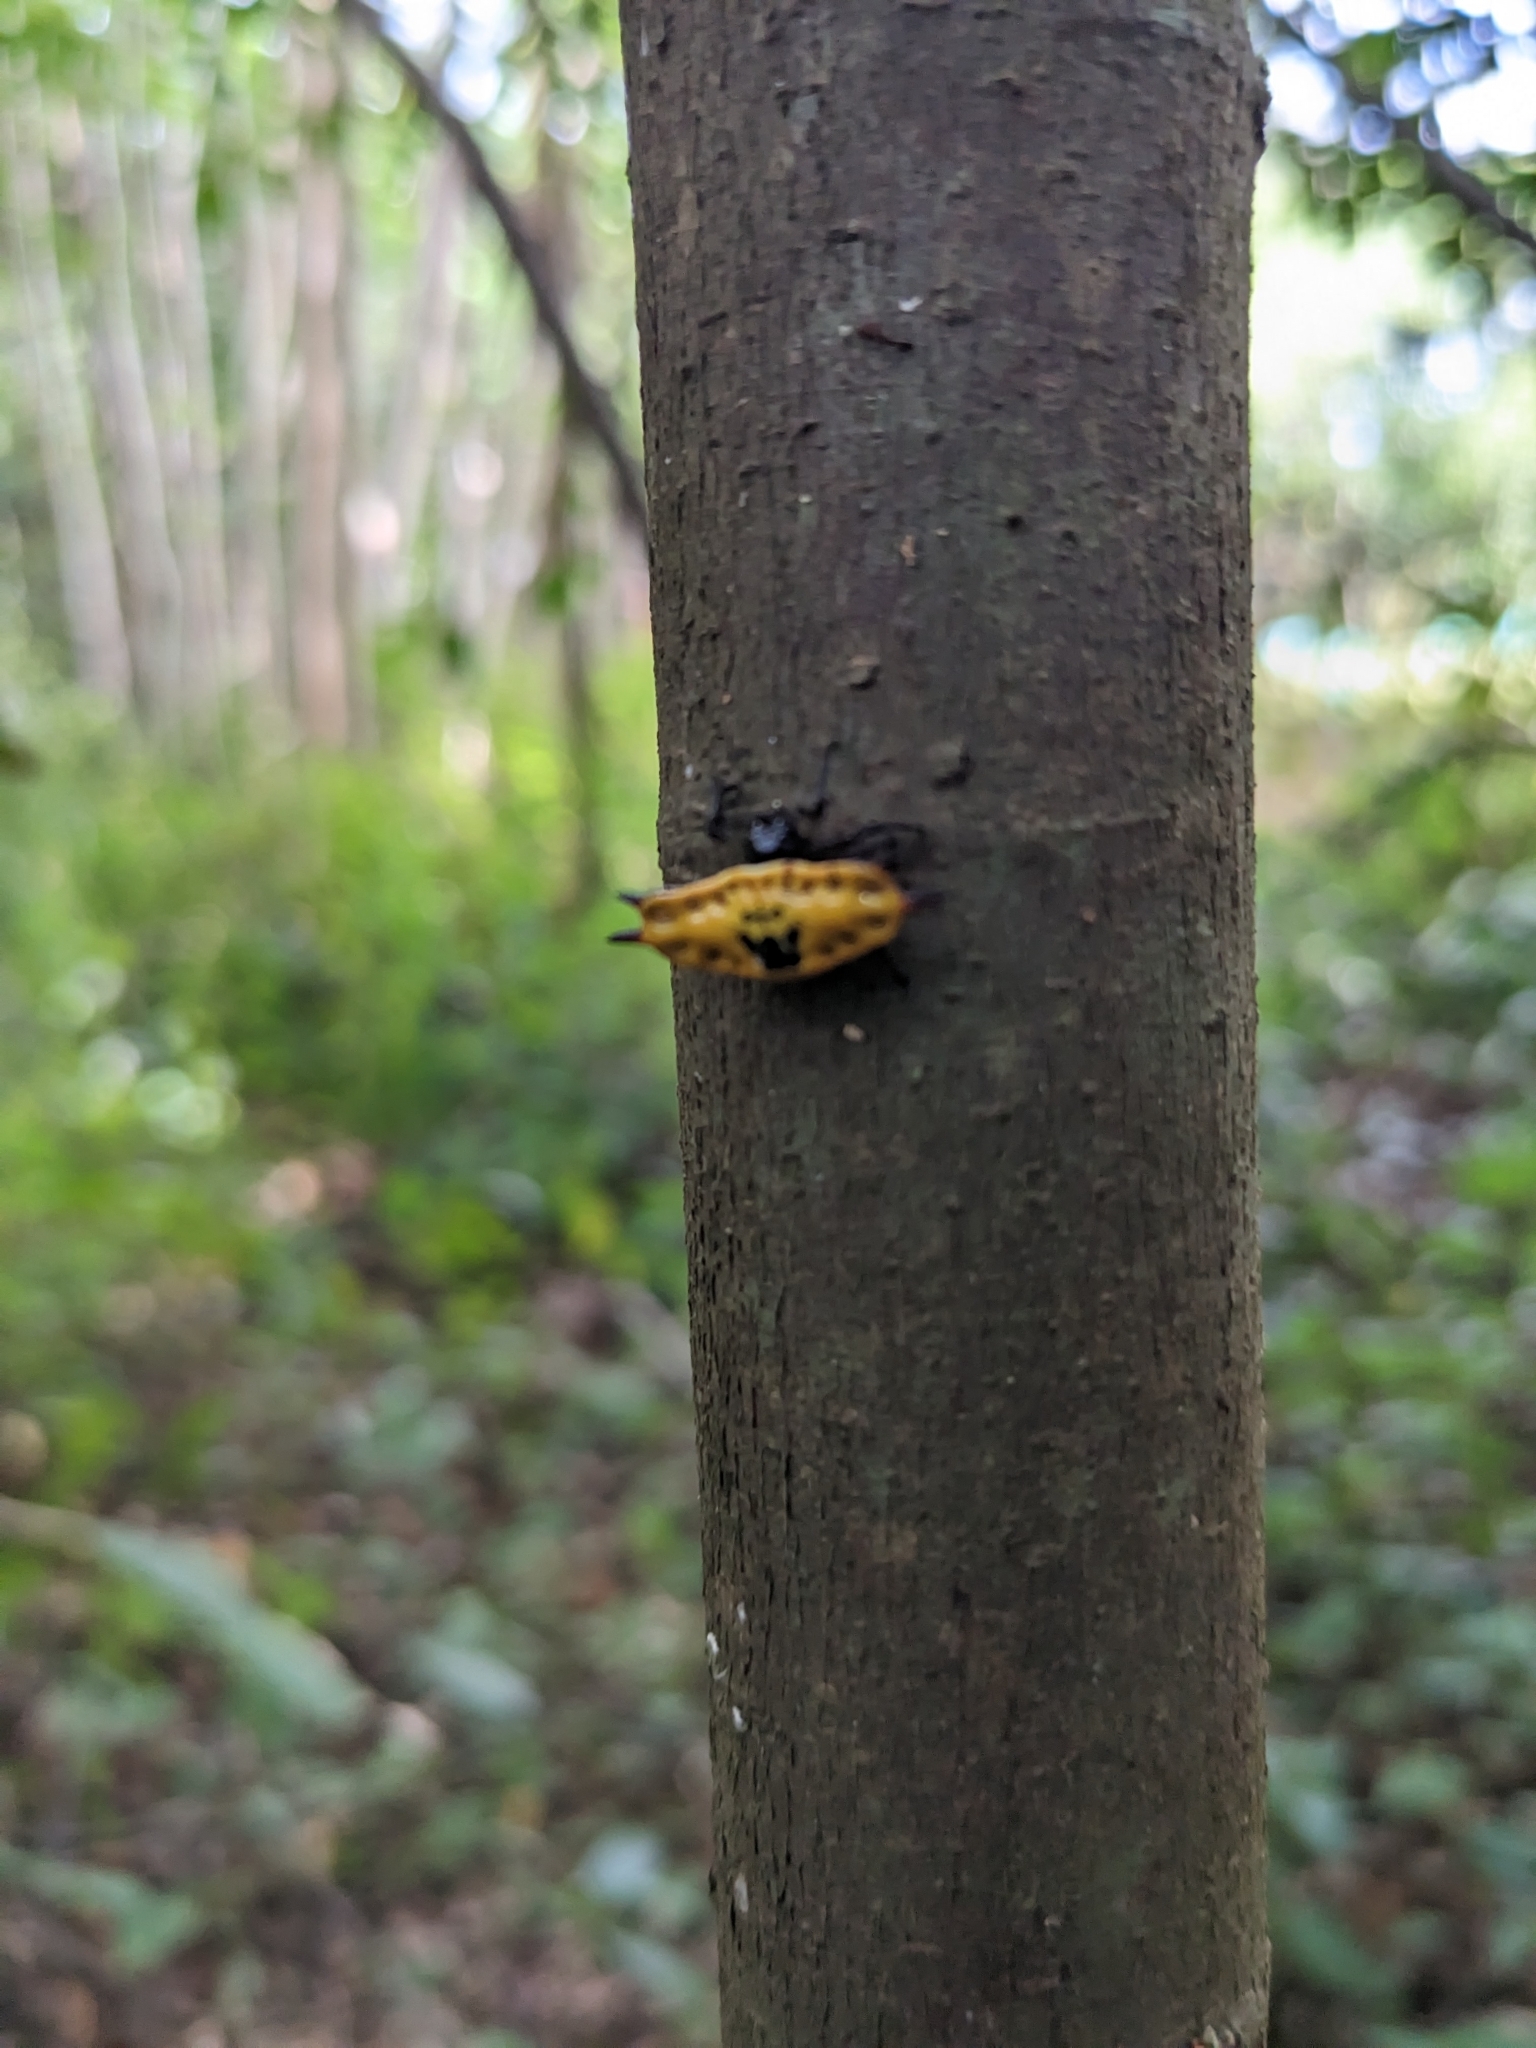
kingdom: Animalia
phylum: Arthropoda
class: Arachnida
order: Araneae
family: Araneidae
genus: Gasteracantha
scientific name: Gasteracantha quadrispinosa
